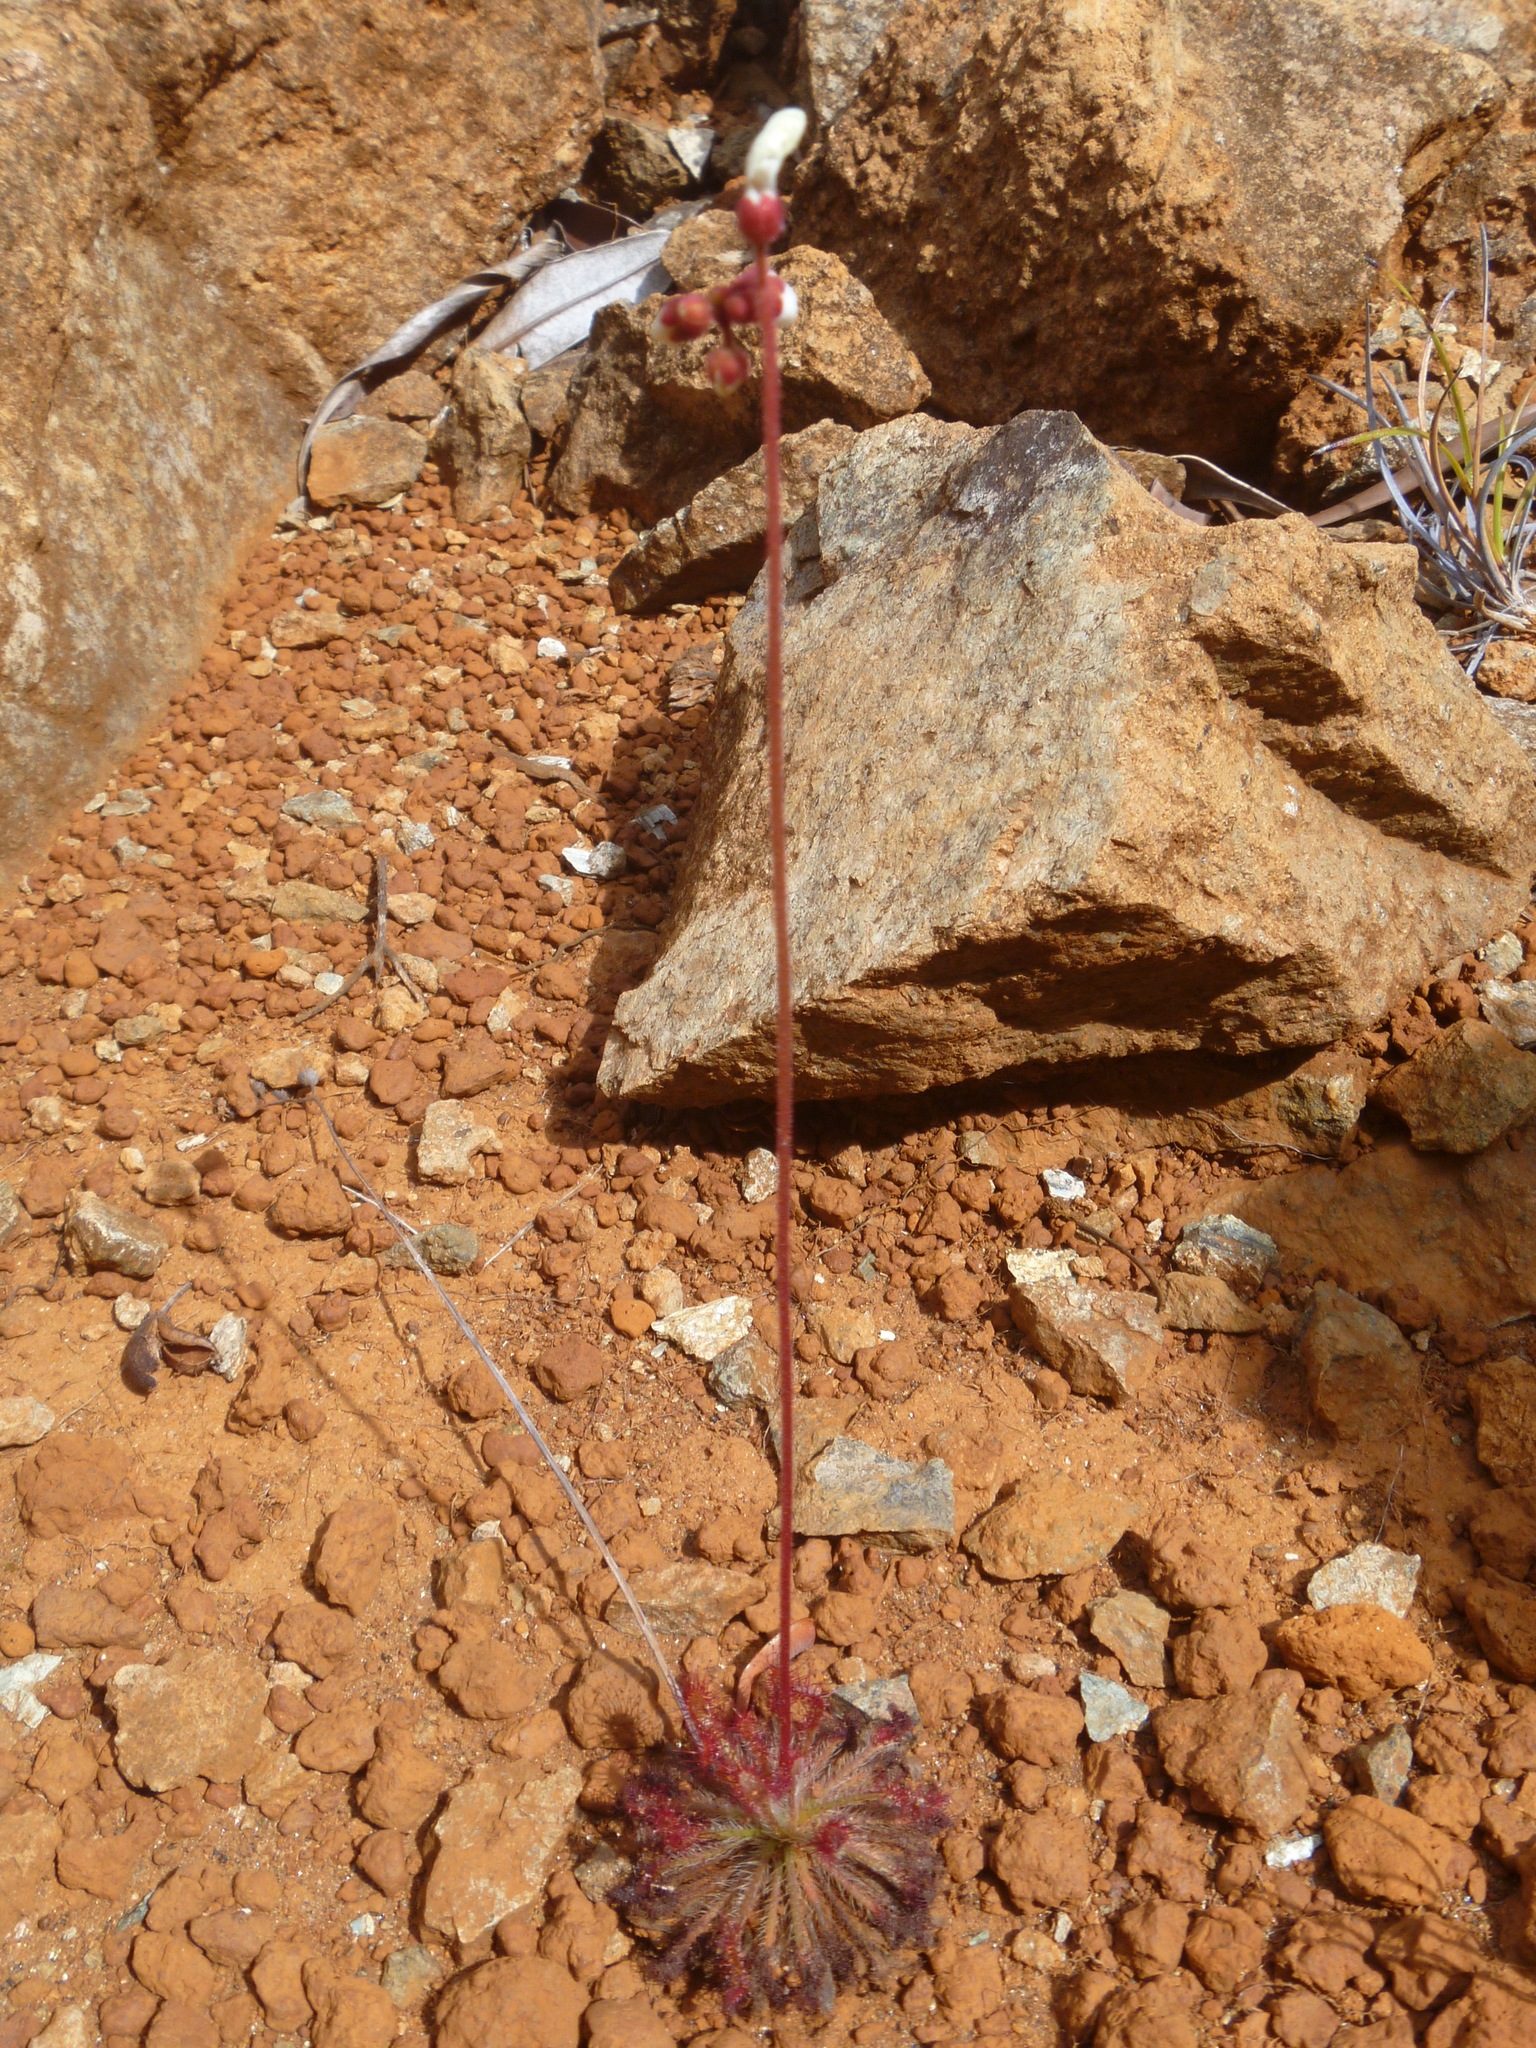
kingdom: Plantae
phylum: Tracheophyta
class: Magnoliopsida
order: Caryophyllales
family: Droseraceae
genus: Drosera
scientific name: Drosera neocaledonica
